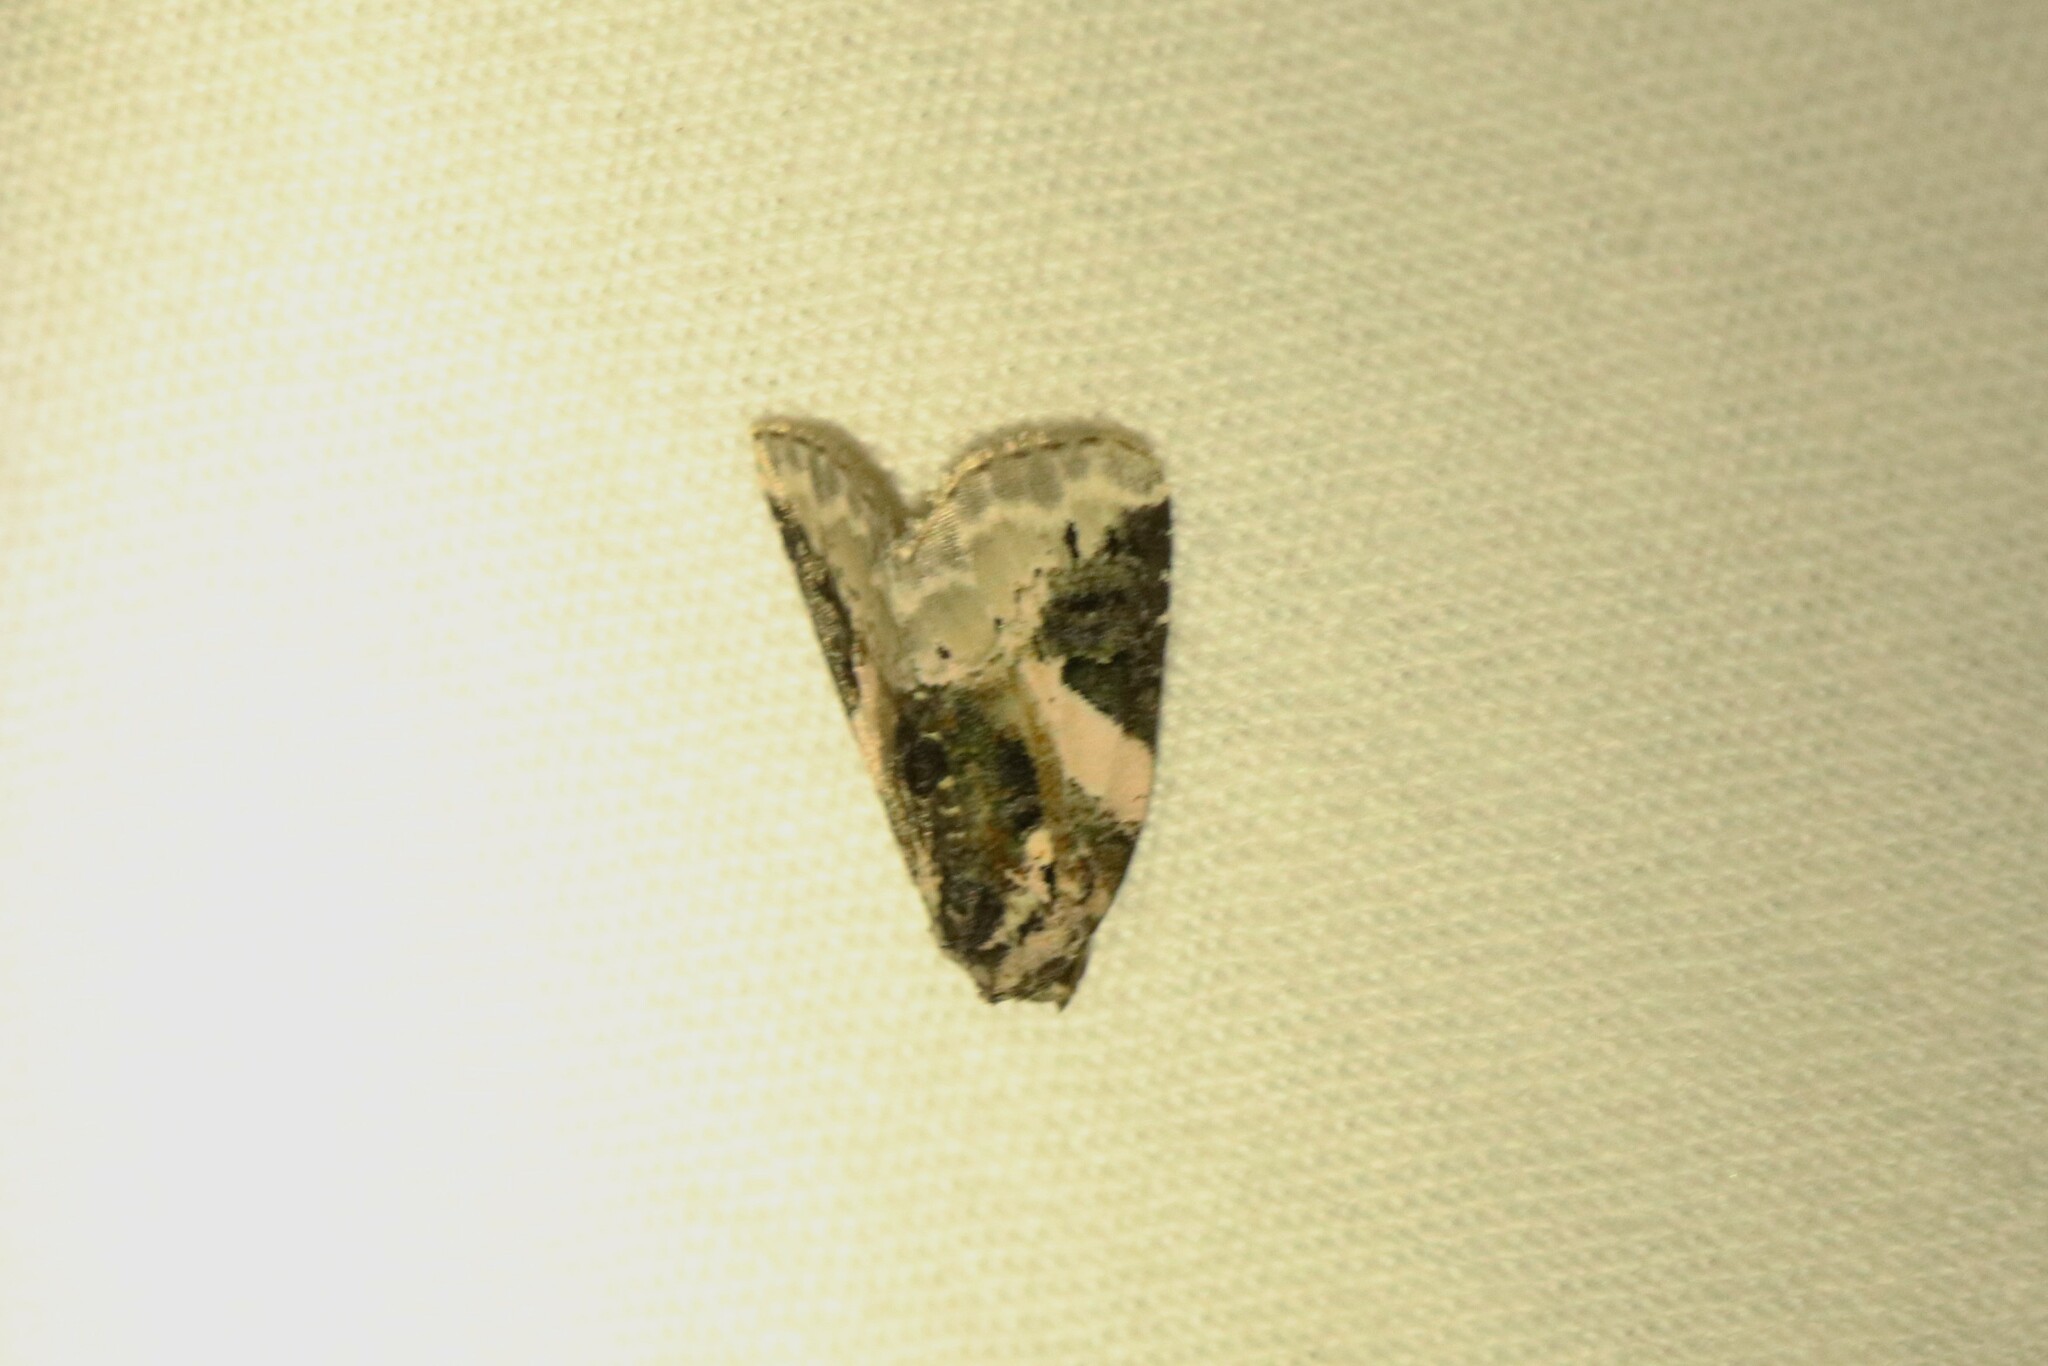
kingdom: Animalia
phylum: Arthropoda
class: Insecta
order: Lepidoptera
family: Noctuidae
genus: Pseudeustrotia
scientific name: Pseudeustrotia carneola
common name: Pink-barred lithacodia moth
